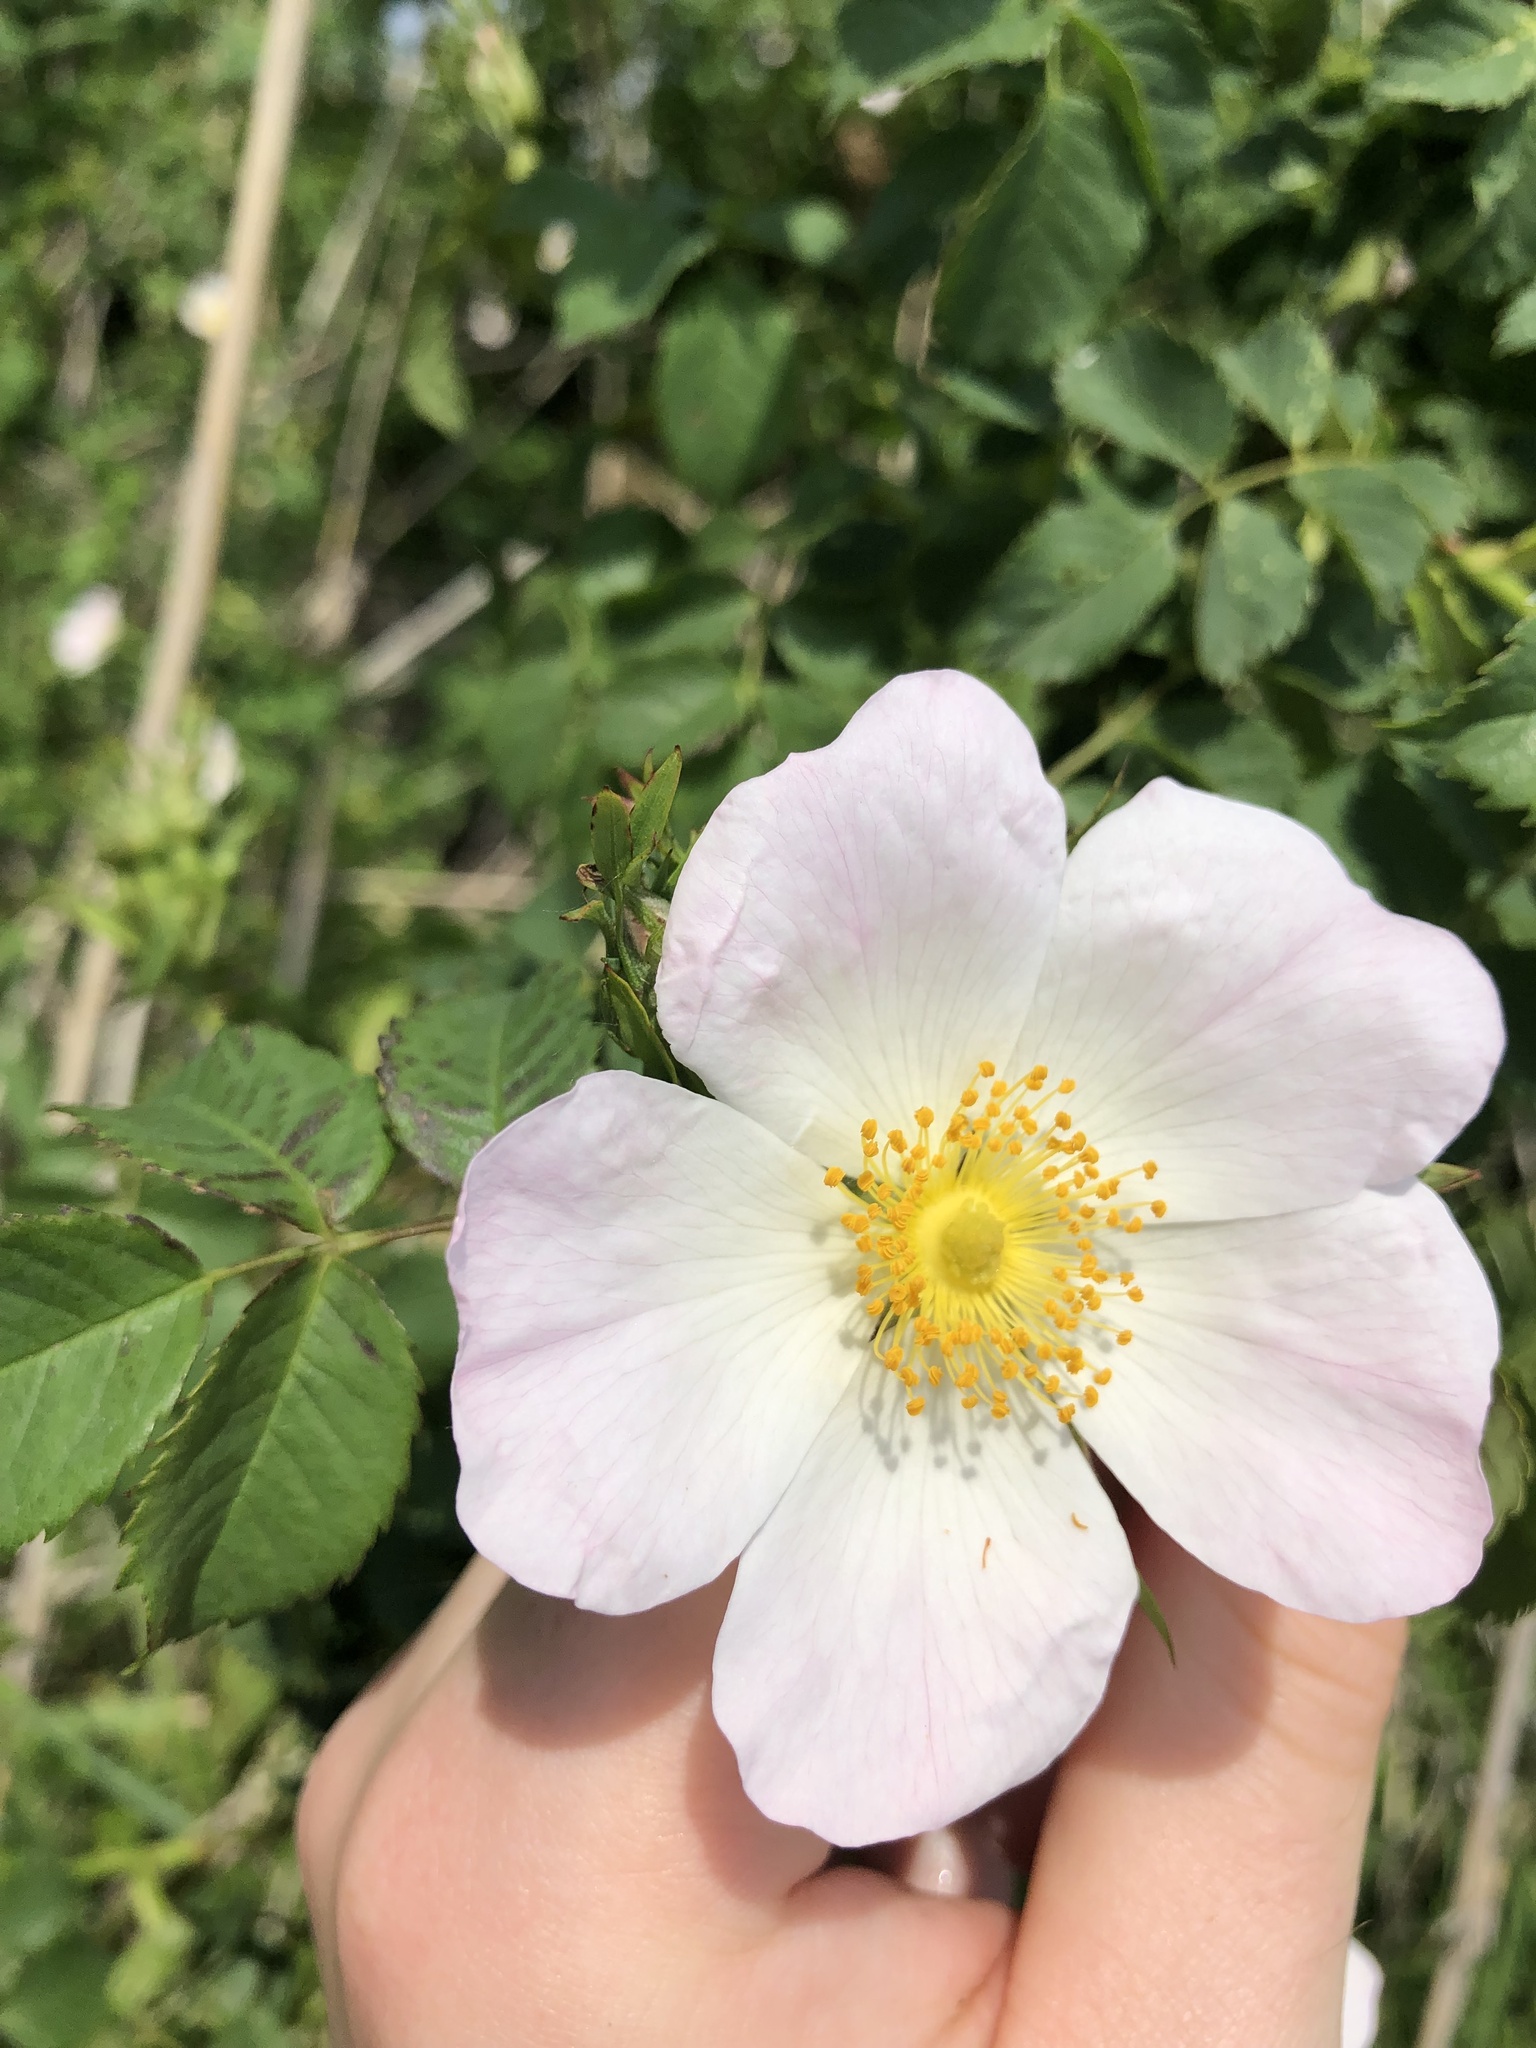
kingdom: Plantae
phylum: Tracheophyta
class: Magnoliopsida
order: Rosales
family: Rosaceae
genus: Rosa
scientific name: Rosa canina
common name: Dog rose
